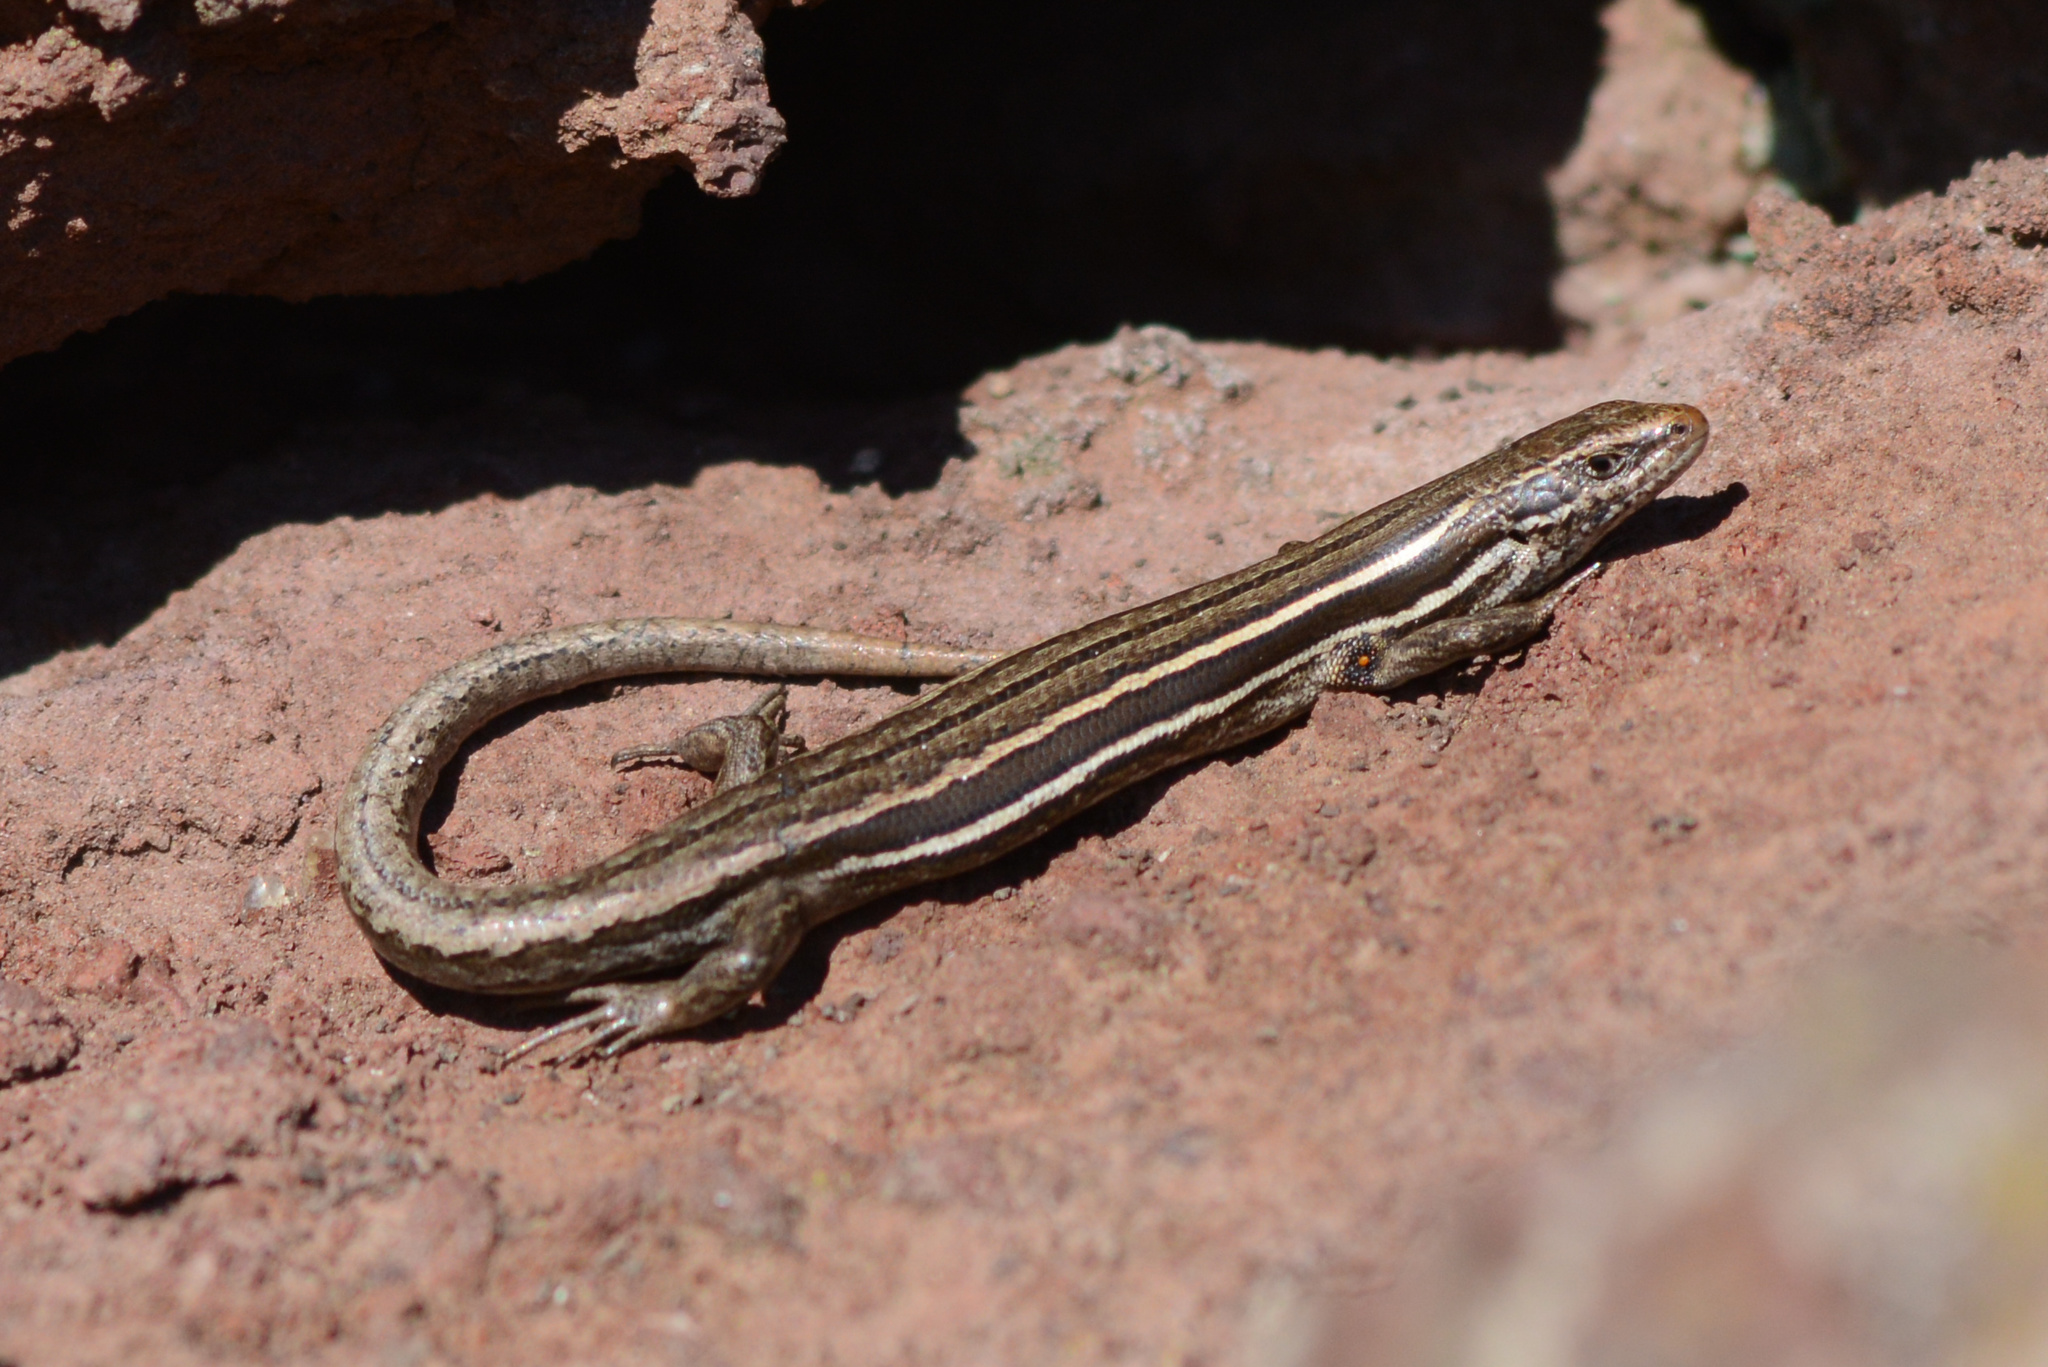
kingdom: Animalia
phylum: Chordata
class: Squamata
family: Scincidae
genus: Oligosoma
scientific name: Oligosoma maccanni
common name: Mccann’s skink
